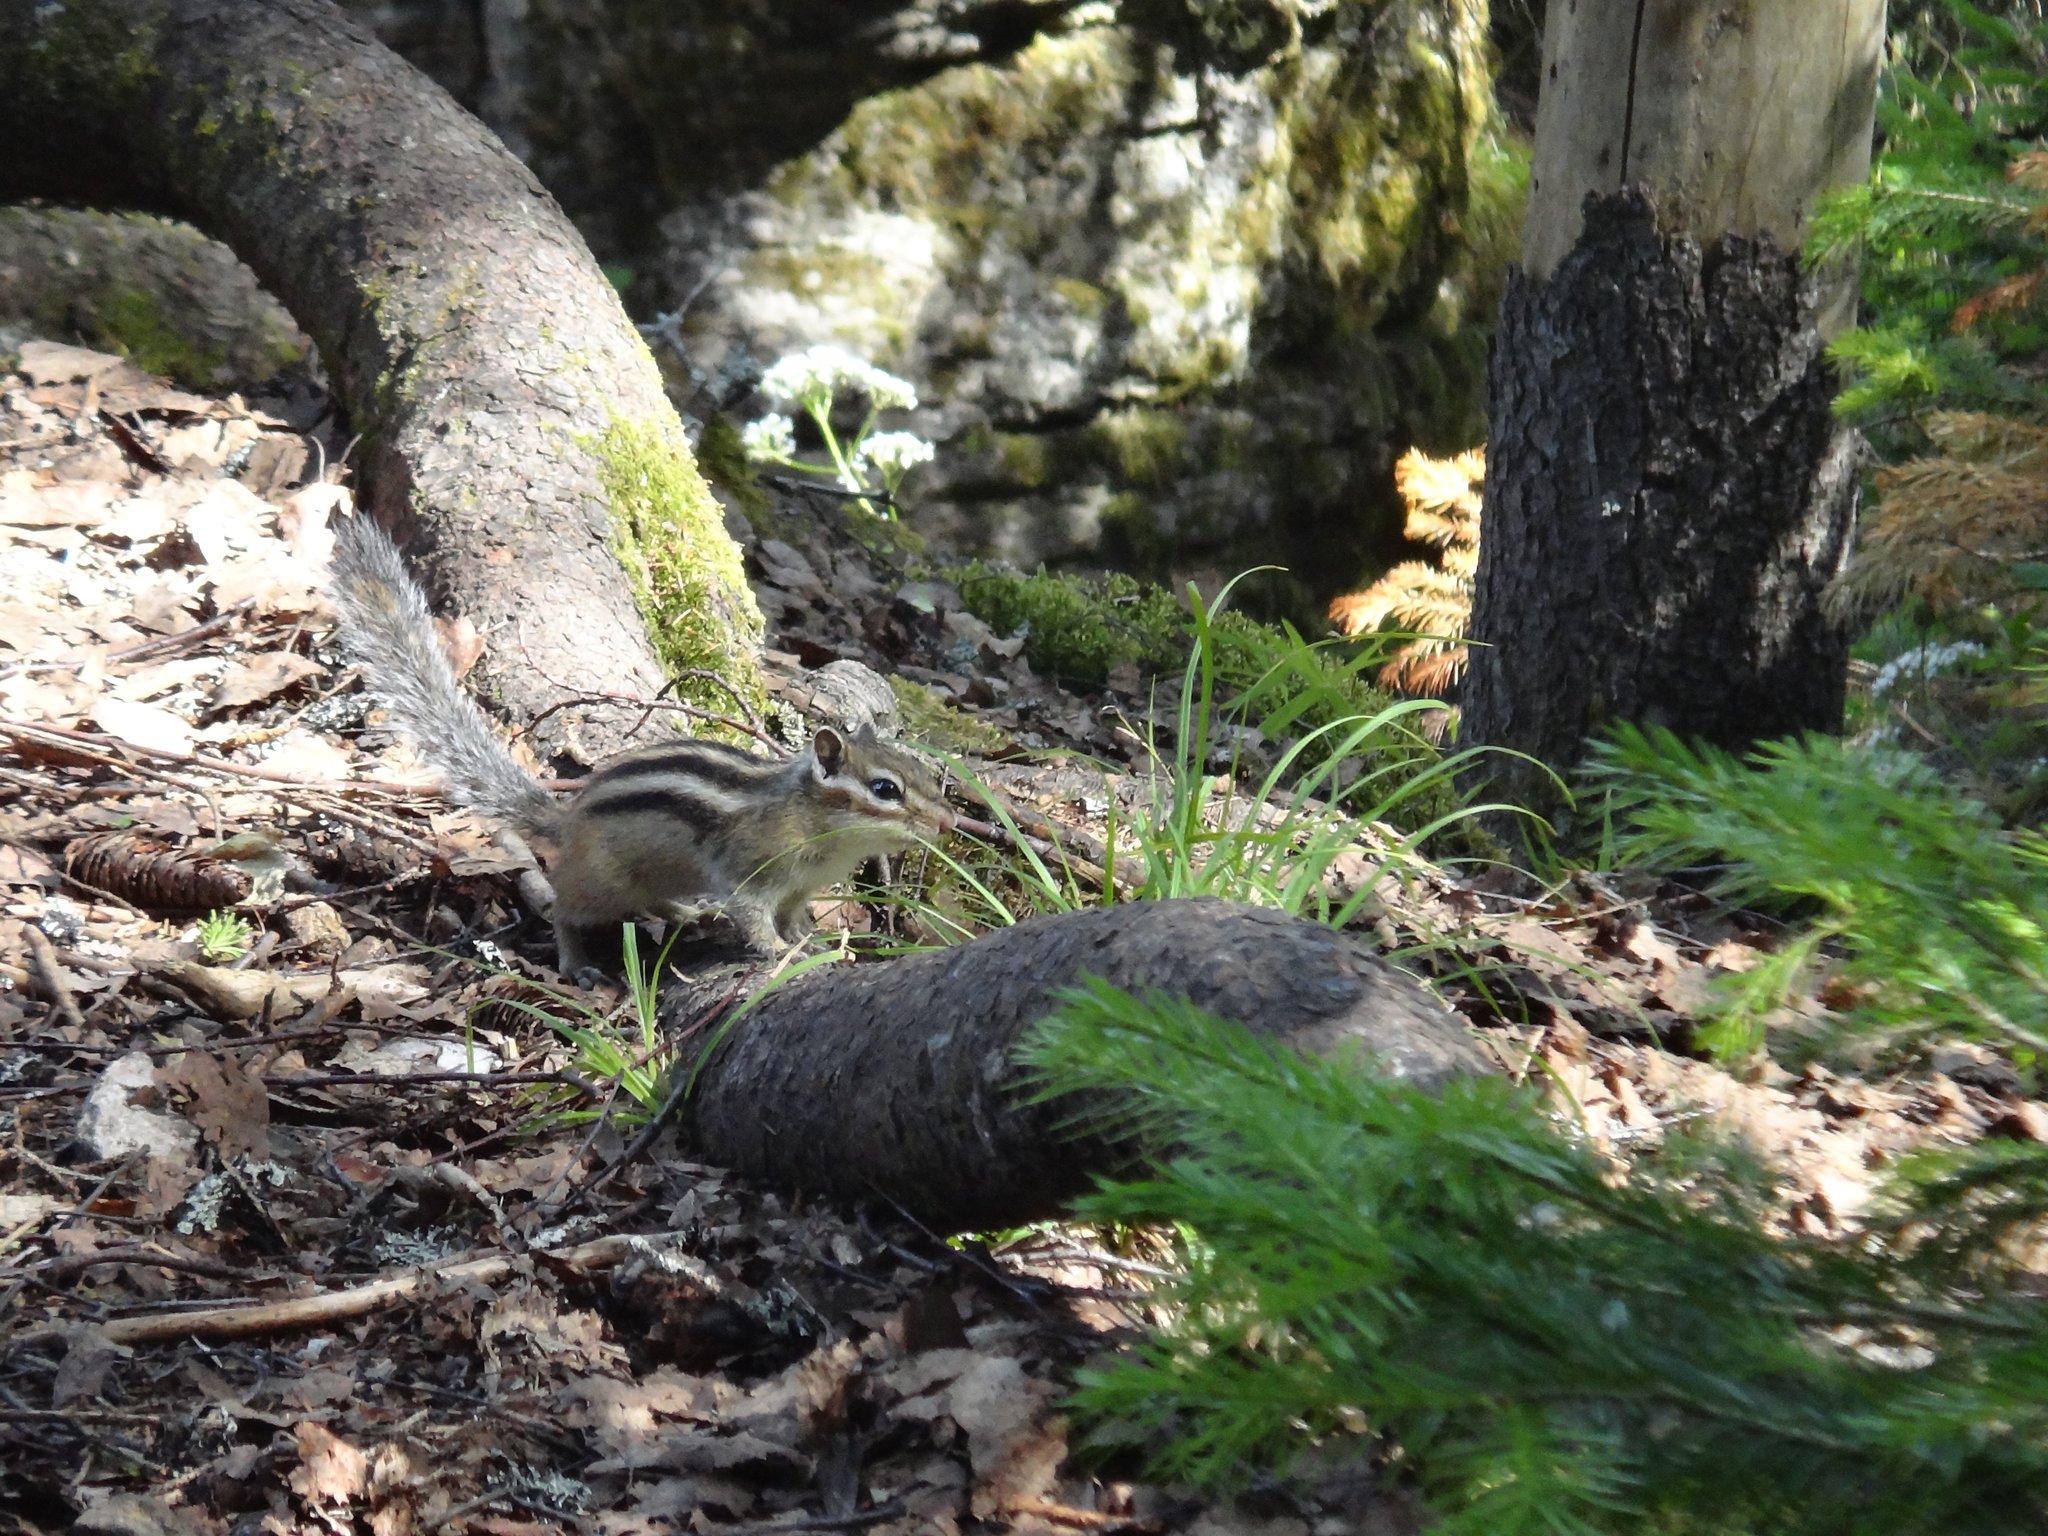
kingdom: Animalia
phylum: Chordata
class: Mammalia
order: Rodentia
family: Sciuridae
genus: Tamias
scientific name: Tamias sibiricus
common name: Siberian chipmunk
